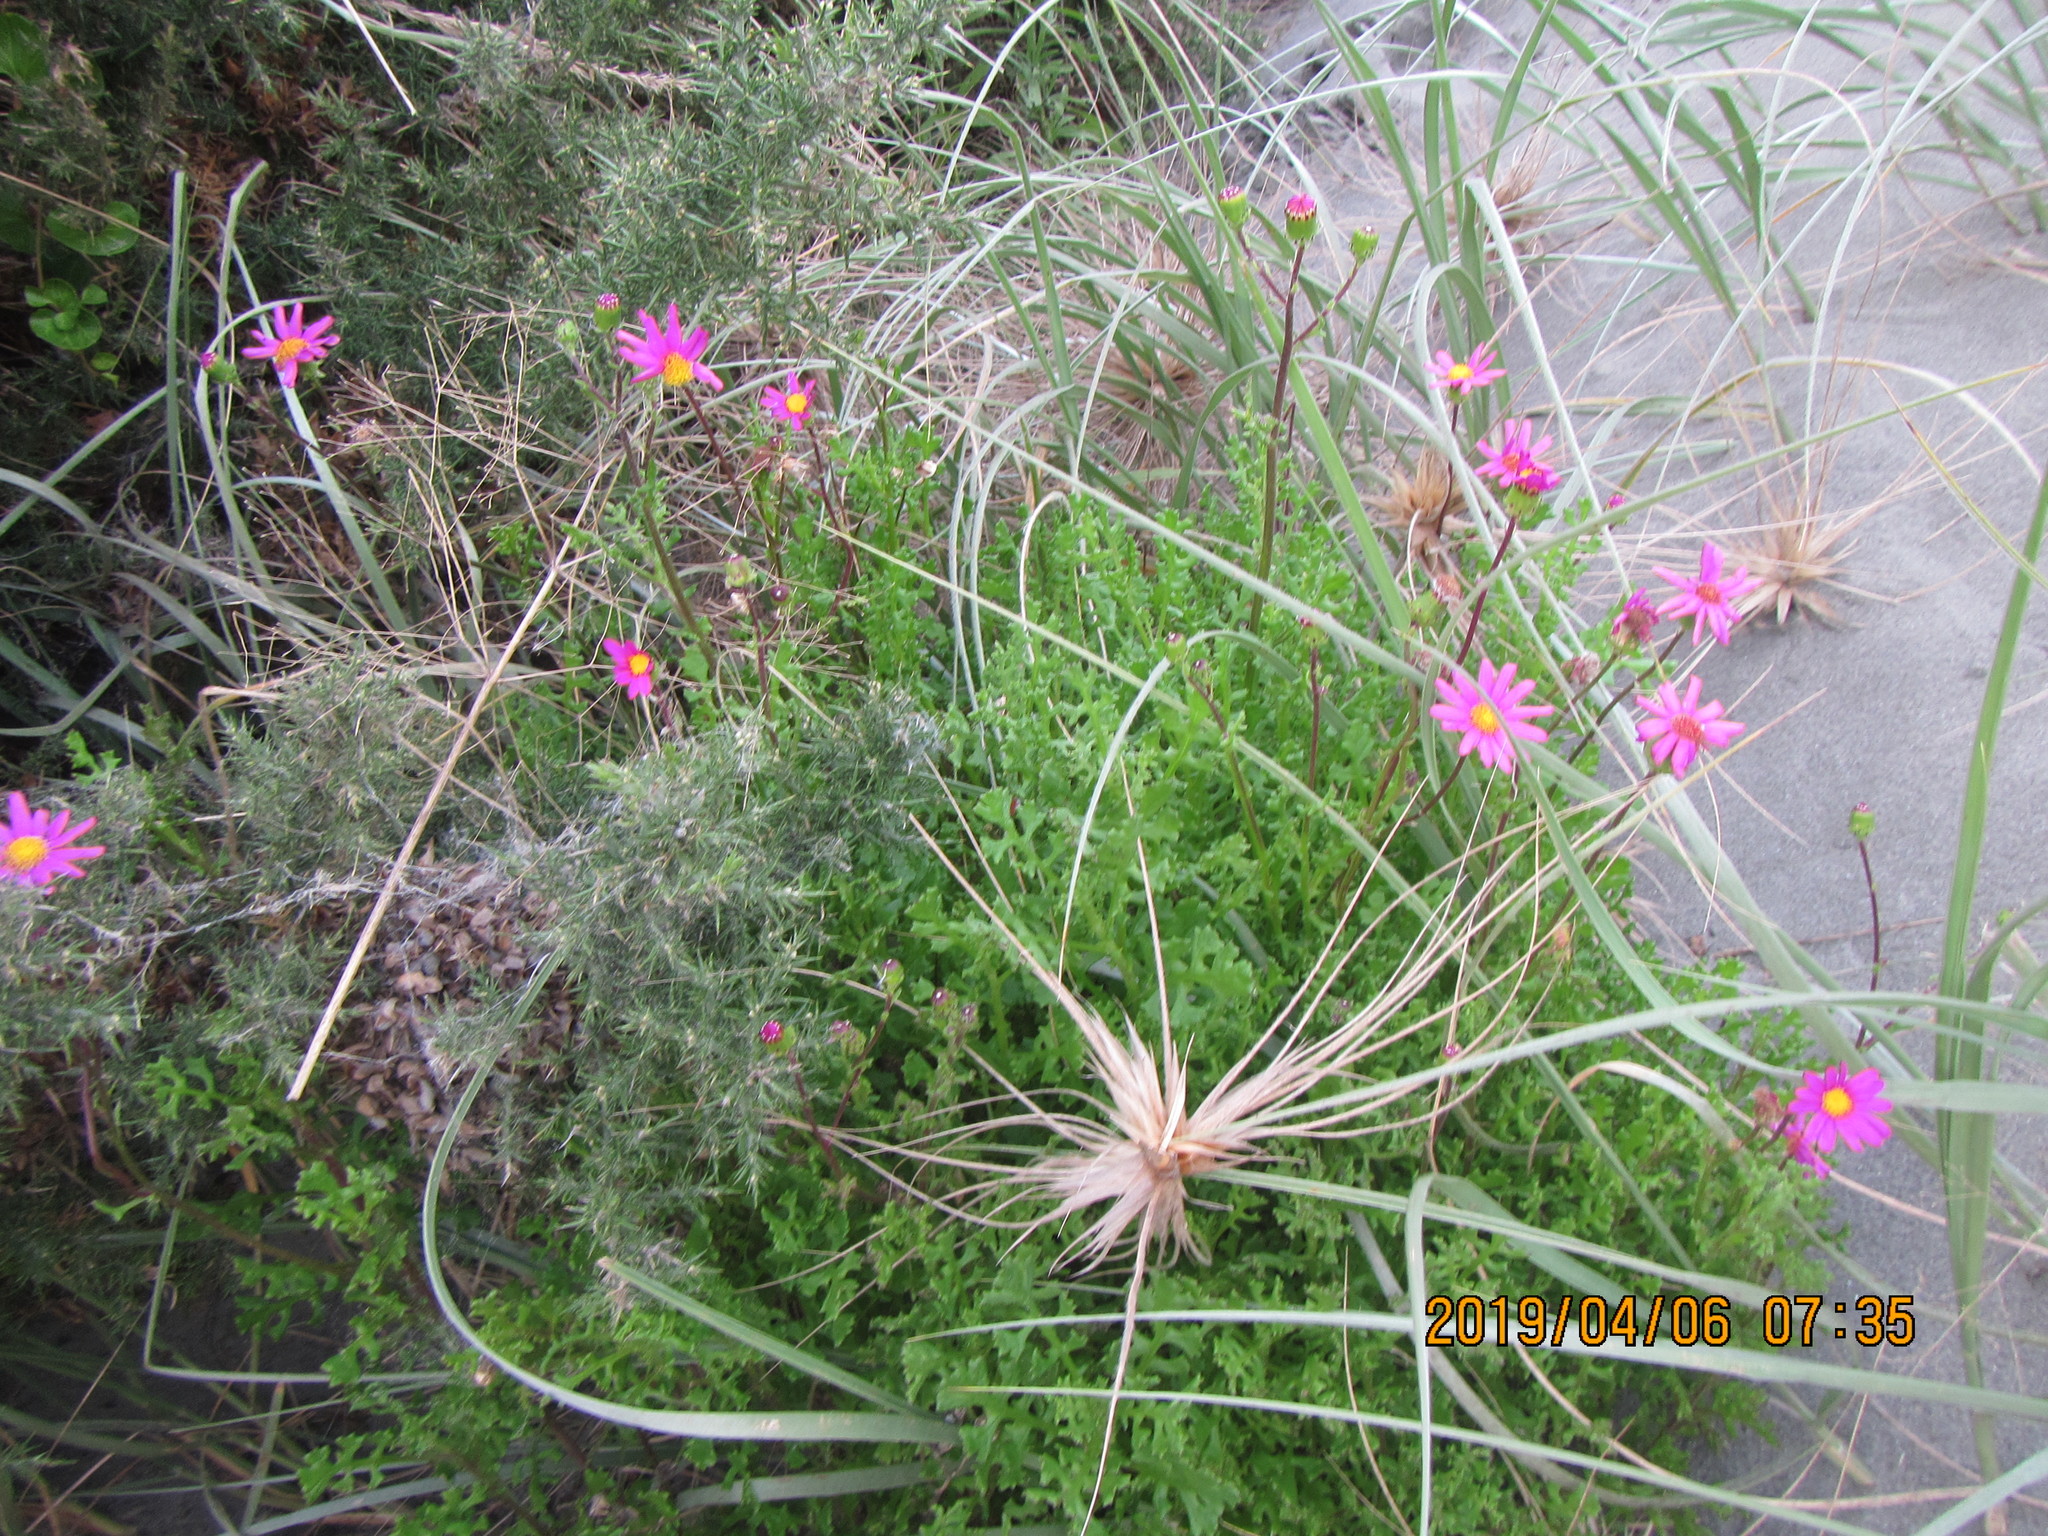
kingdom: Plantae
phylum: Tracheophyta
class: Magnoliopsida
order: Asterales
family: Asteraceae
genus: Senecio
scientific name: Senecio elegans
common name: Purple groundsel
